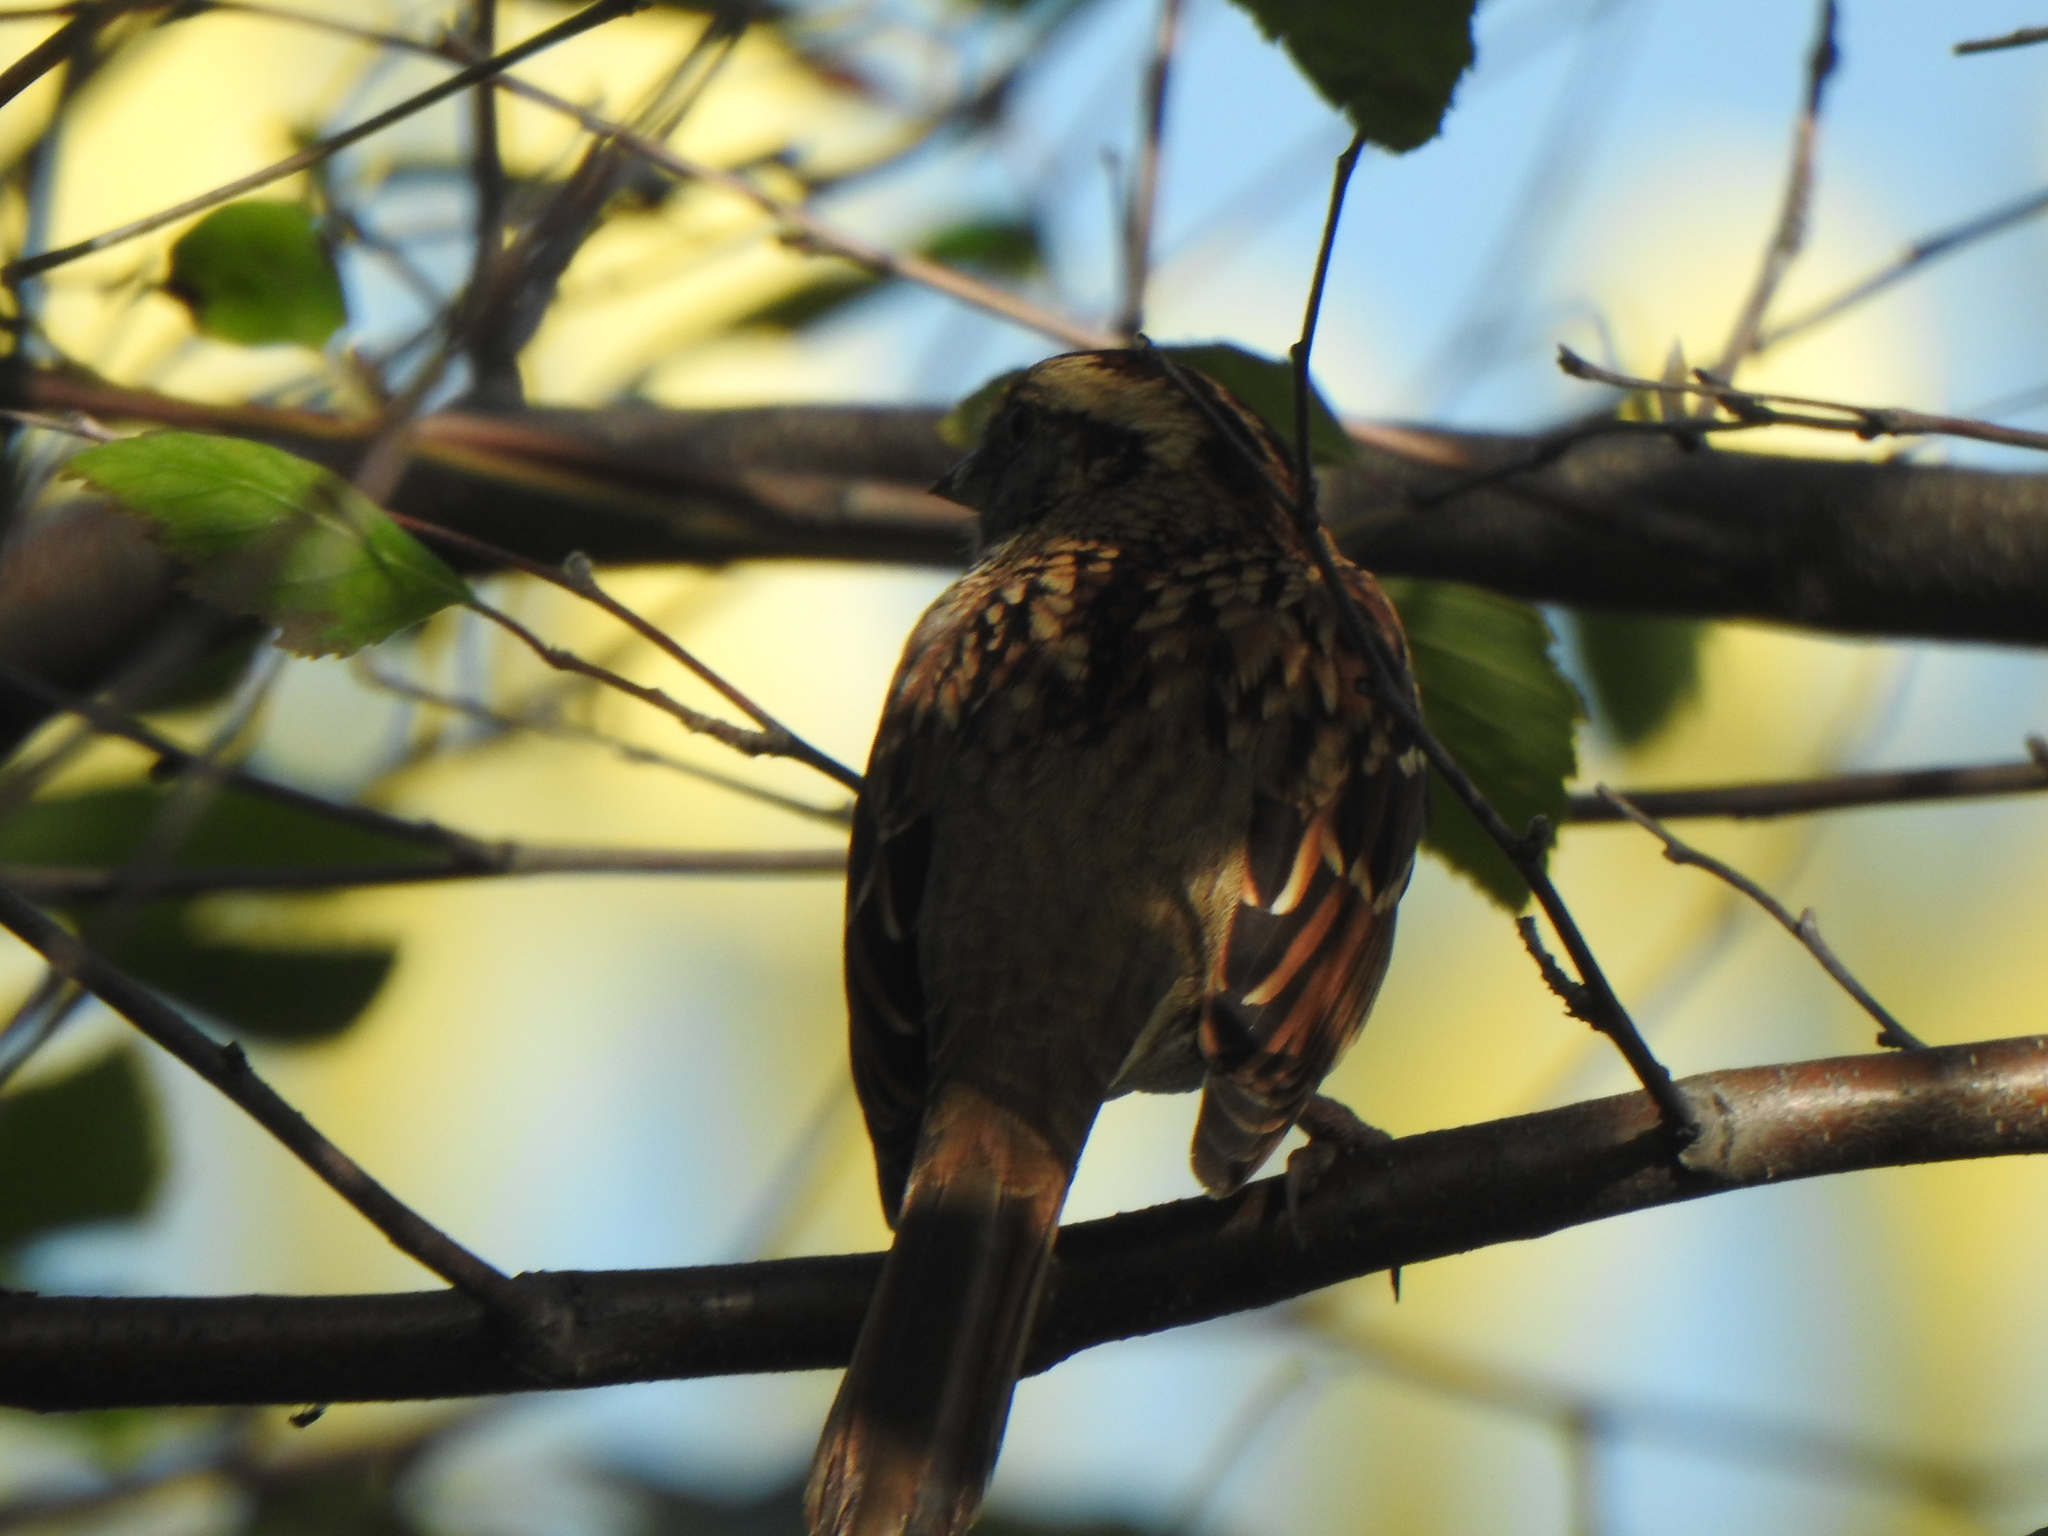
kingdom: Animalia
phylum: Chordata
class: Aves
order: Passeriformes
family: Passerellidae
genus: Zonotrichia
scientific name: Zonotrichia albicollis
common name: White-throated sparrow
